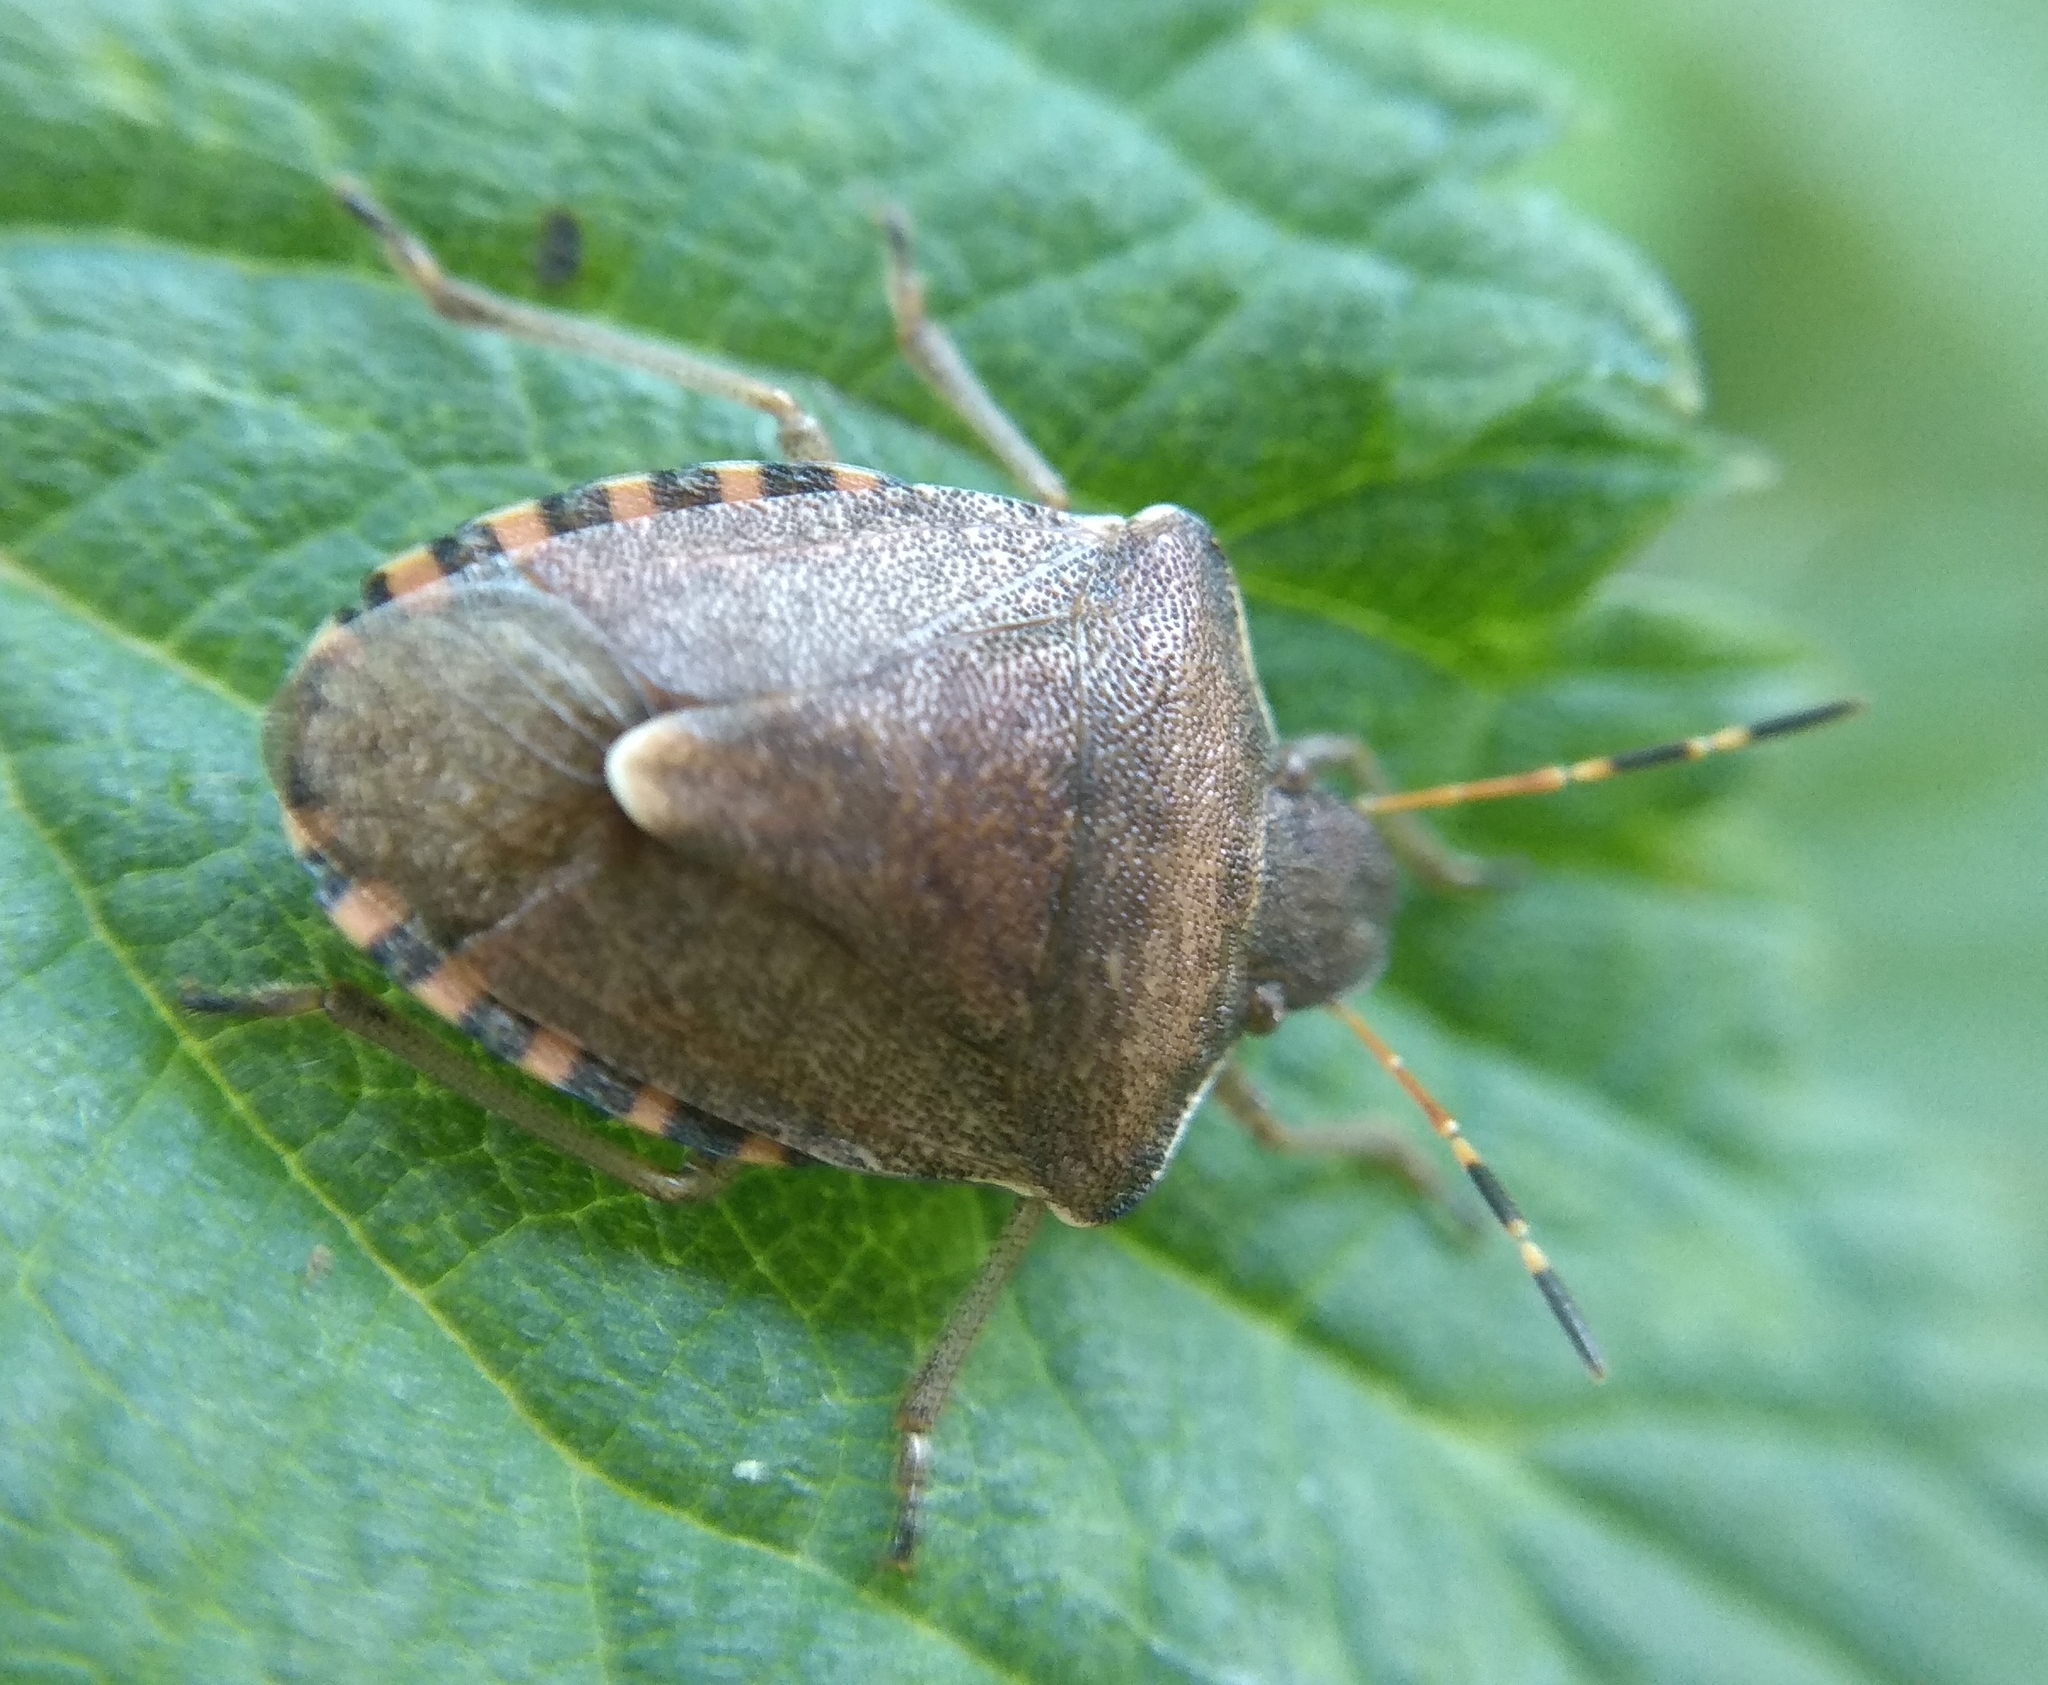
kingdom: Animalia
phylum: Arthropoda
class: Insecta
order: Hemiptera
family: Pentatomidae
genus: Holcostethus
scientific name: Holcostethus strictus
